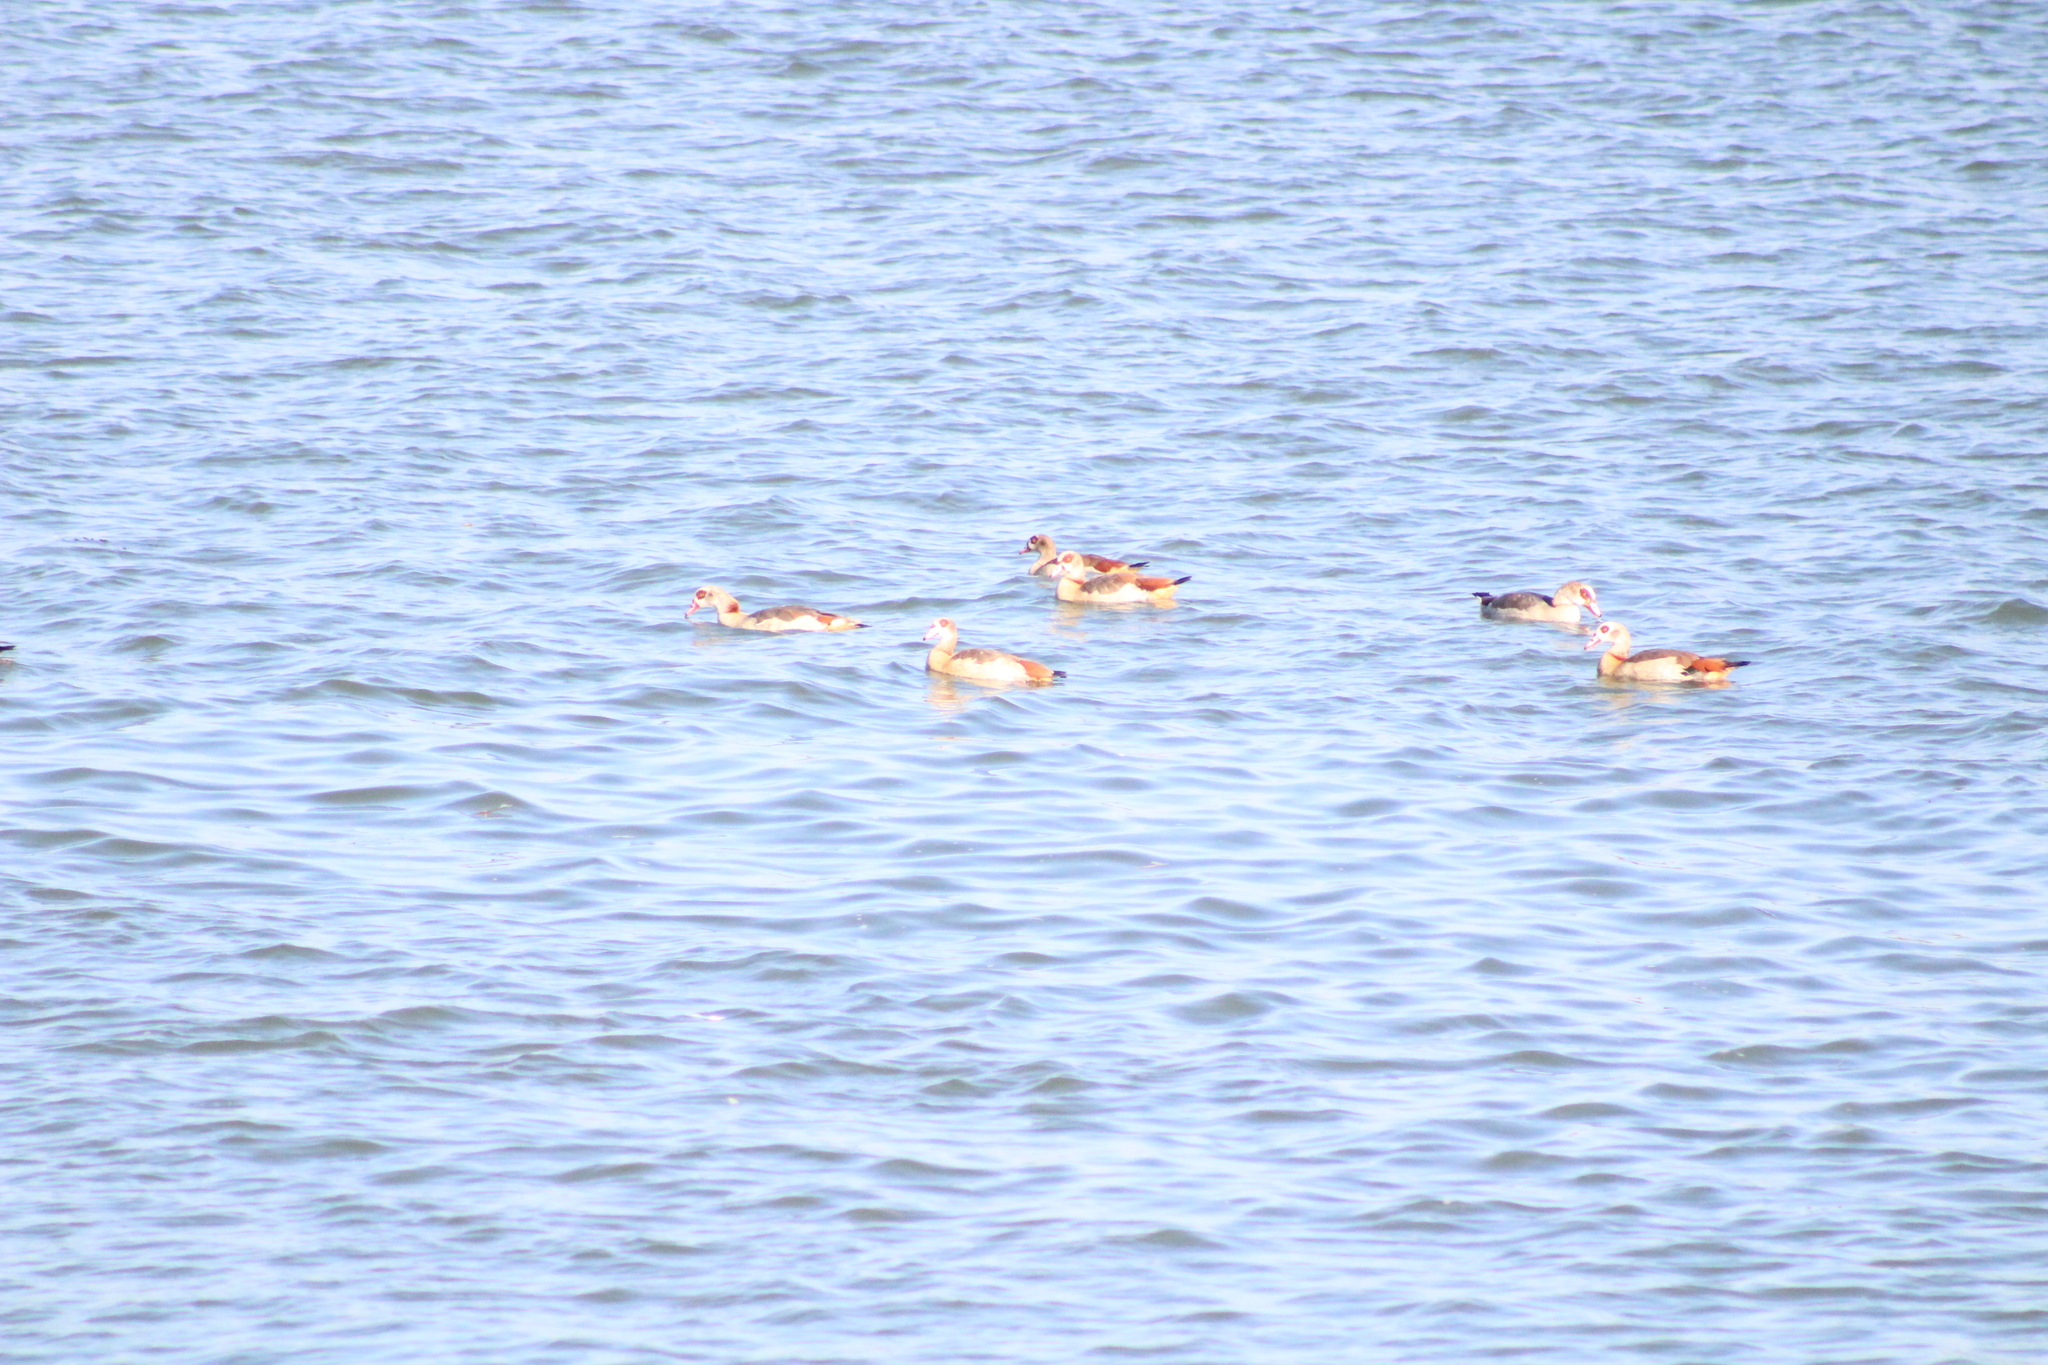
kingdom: Animalia
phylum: Chordata
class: Aves
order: Anseriformes
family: Anatidae
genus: Alopochen
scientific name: Alopochen aegyptiaca
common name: Egyptian goose
